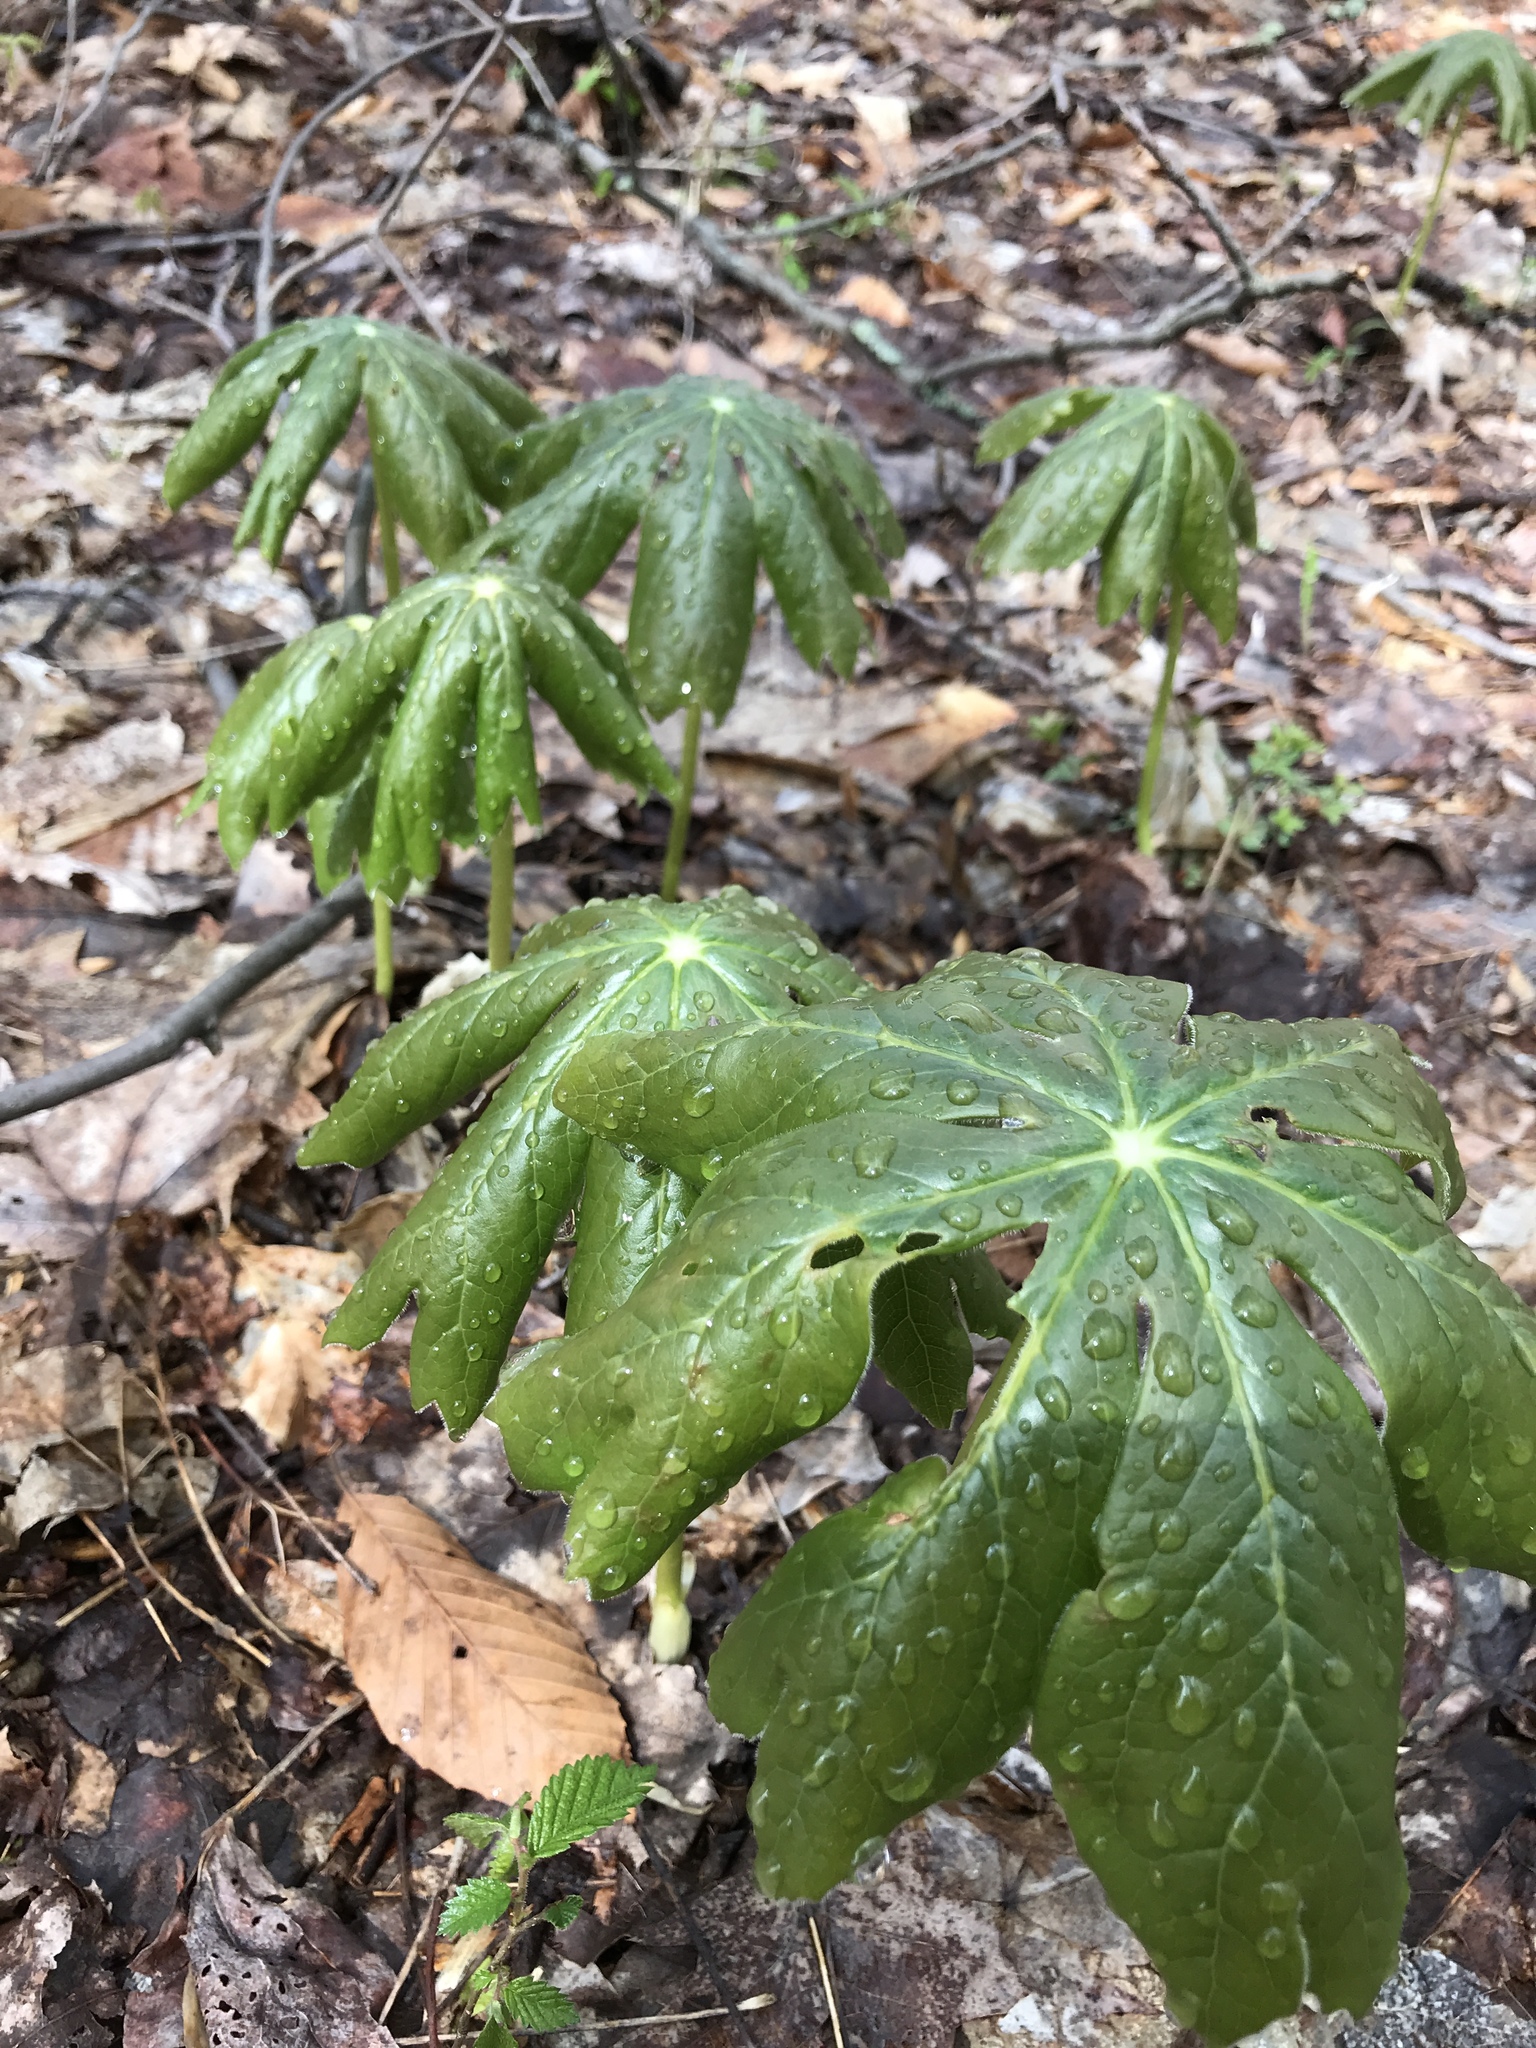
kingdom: Plantae
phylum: Tracheophyta
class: Magnoliopsida
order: Ranunculales
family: Berberidaceae
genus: Podophyllum
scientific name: Podophyllum peltatum
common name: Wild mandrake
